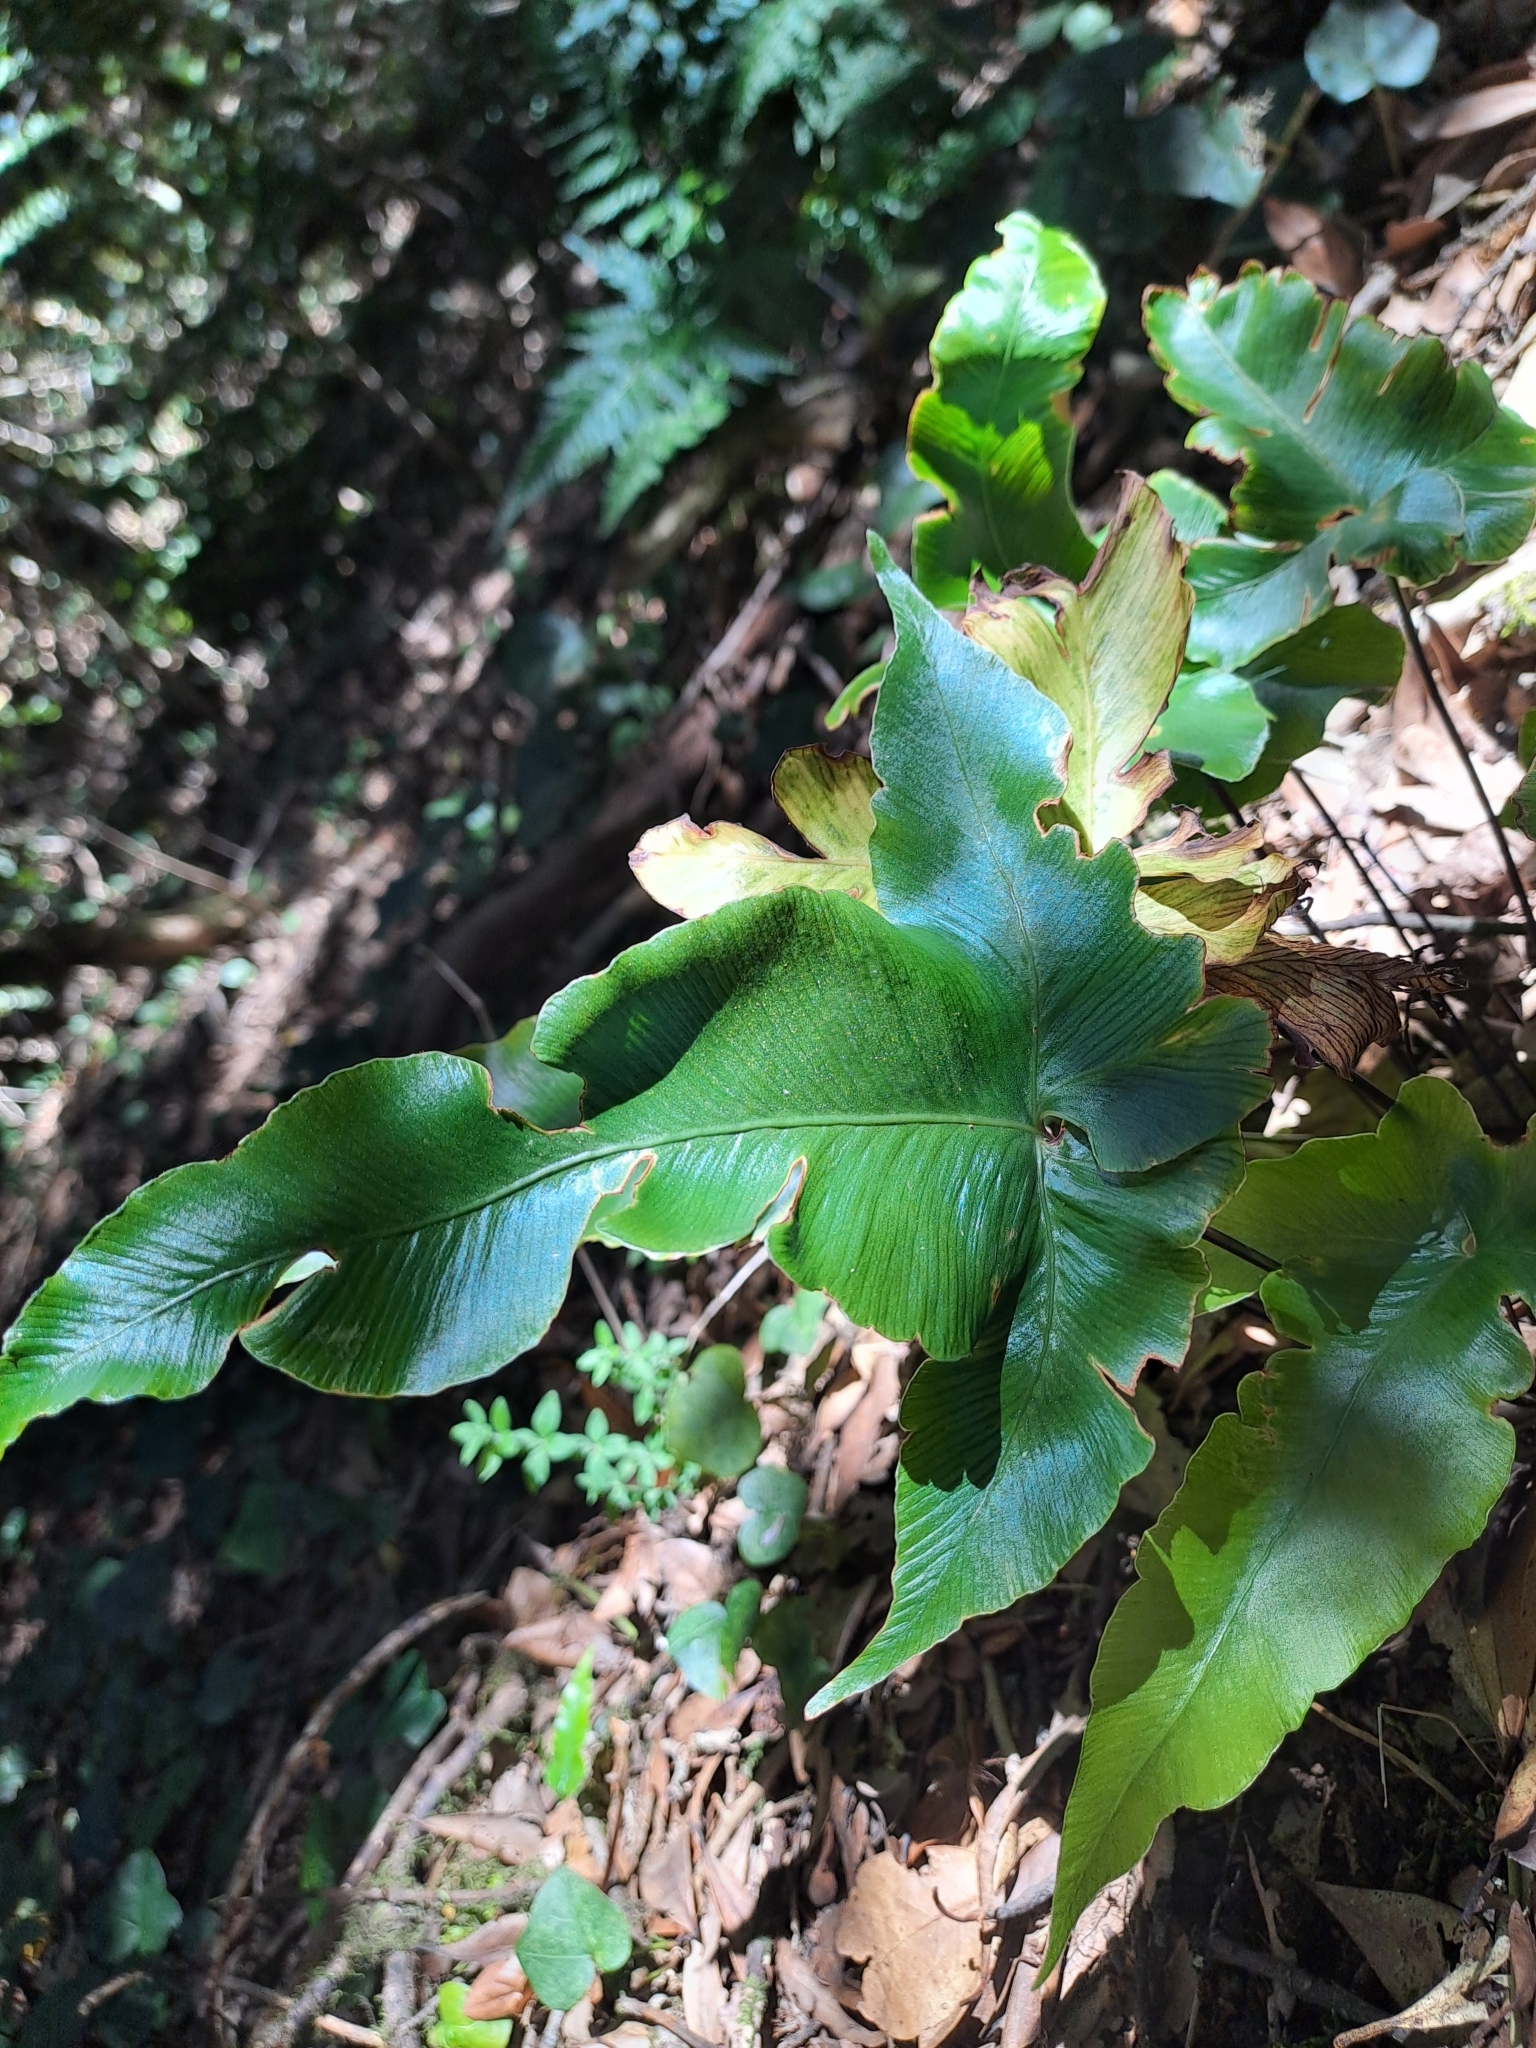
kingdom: Plantae
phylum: Tracheophyta
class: Polypodiopsida
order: Polypodiales
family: Aspleniaceae
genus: Asplenium
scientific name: Asplenium hemionitis
